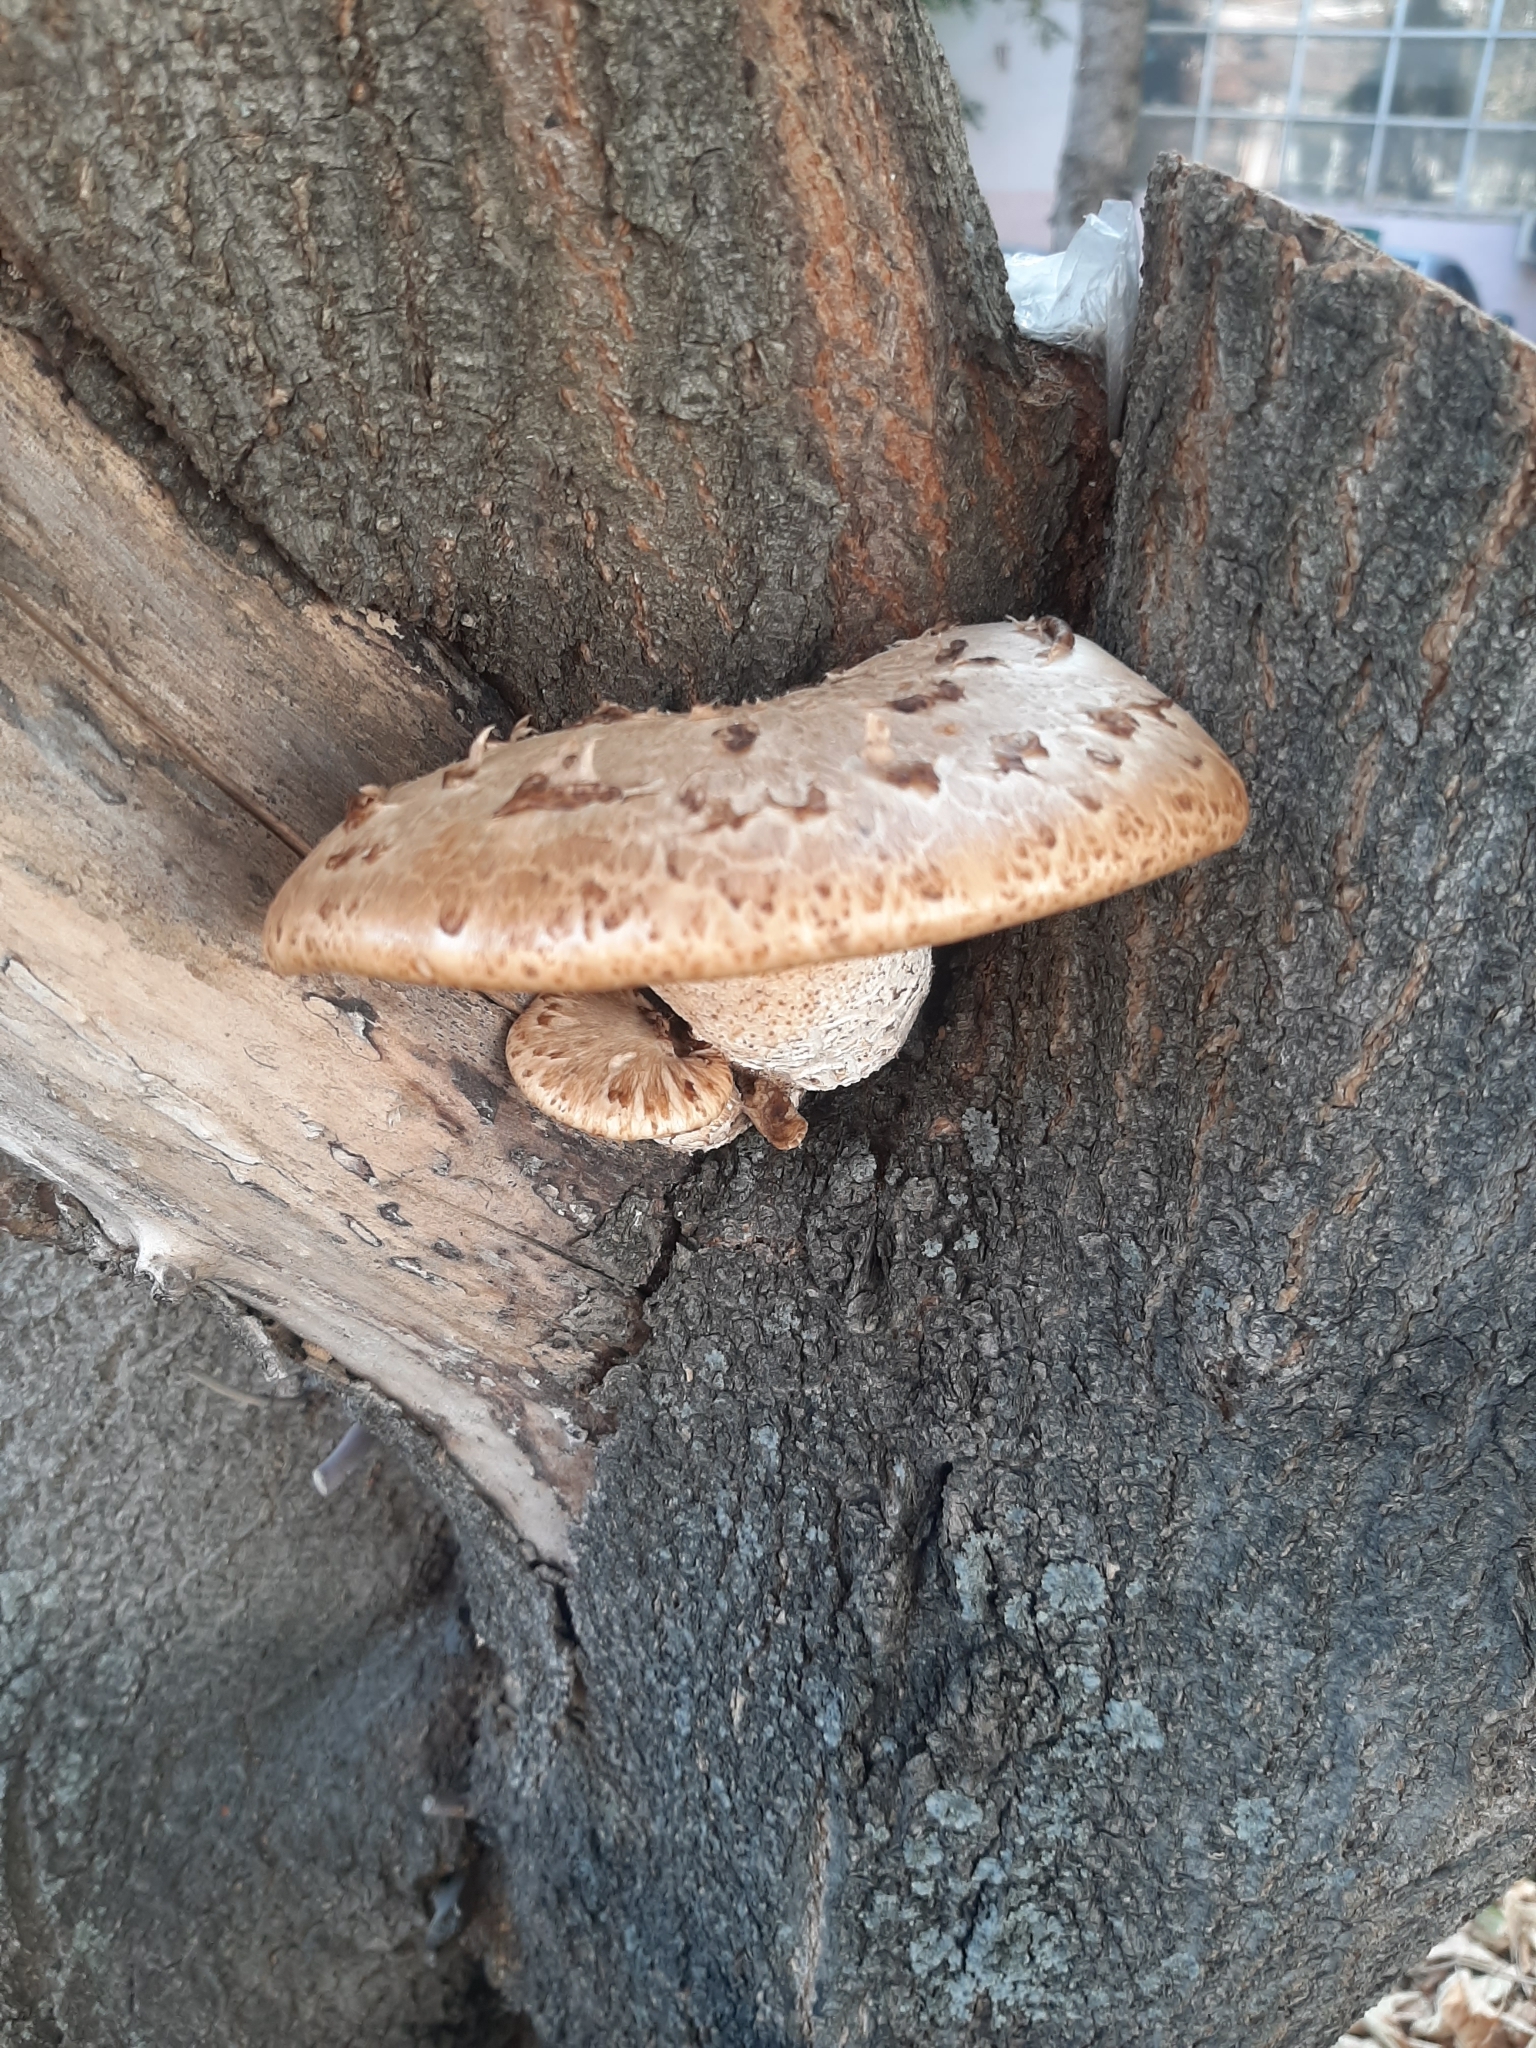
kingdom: Fungi
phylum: Basidiomycota
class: Agaricomycetes
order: Polyporales
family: Polyporaceae
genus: Cerioporus
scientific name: Cerioporus squamosus
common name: Dryad's saddle
